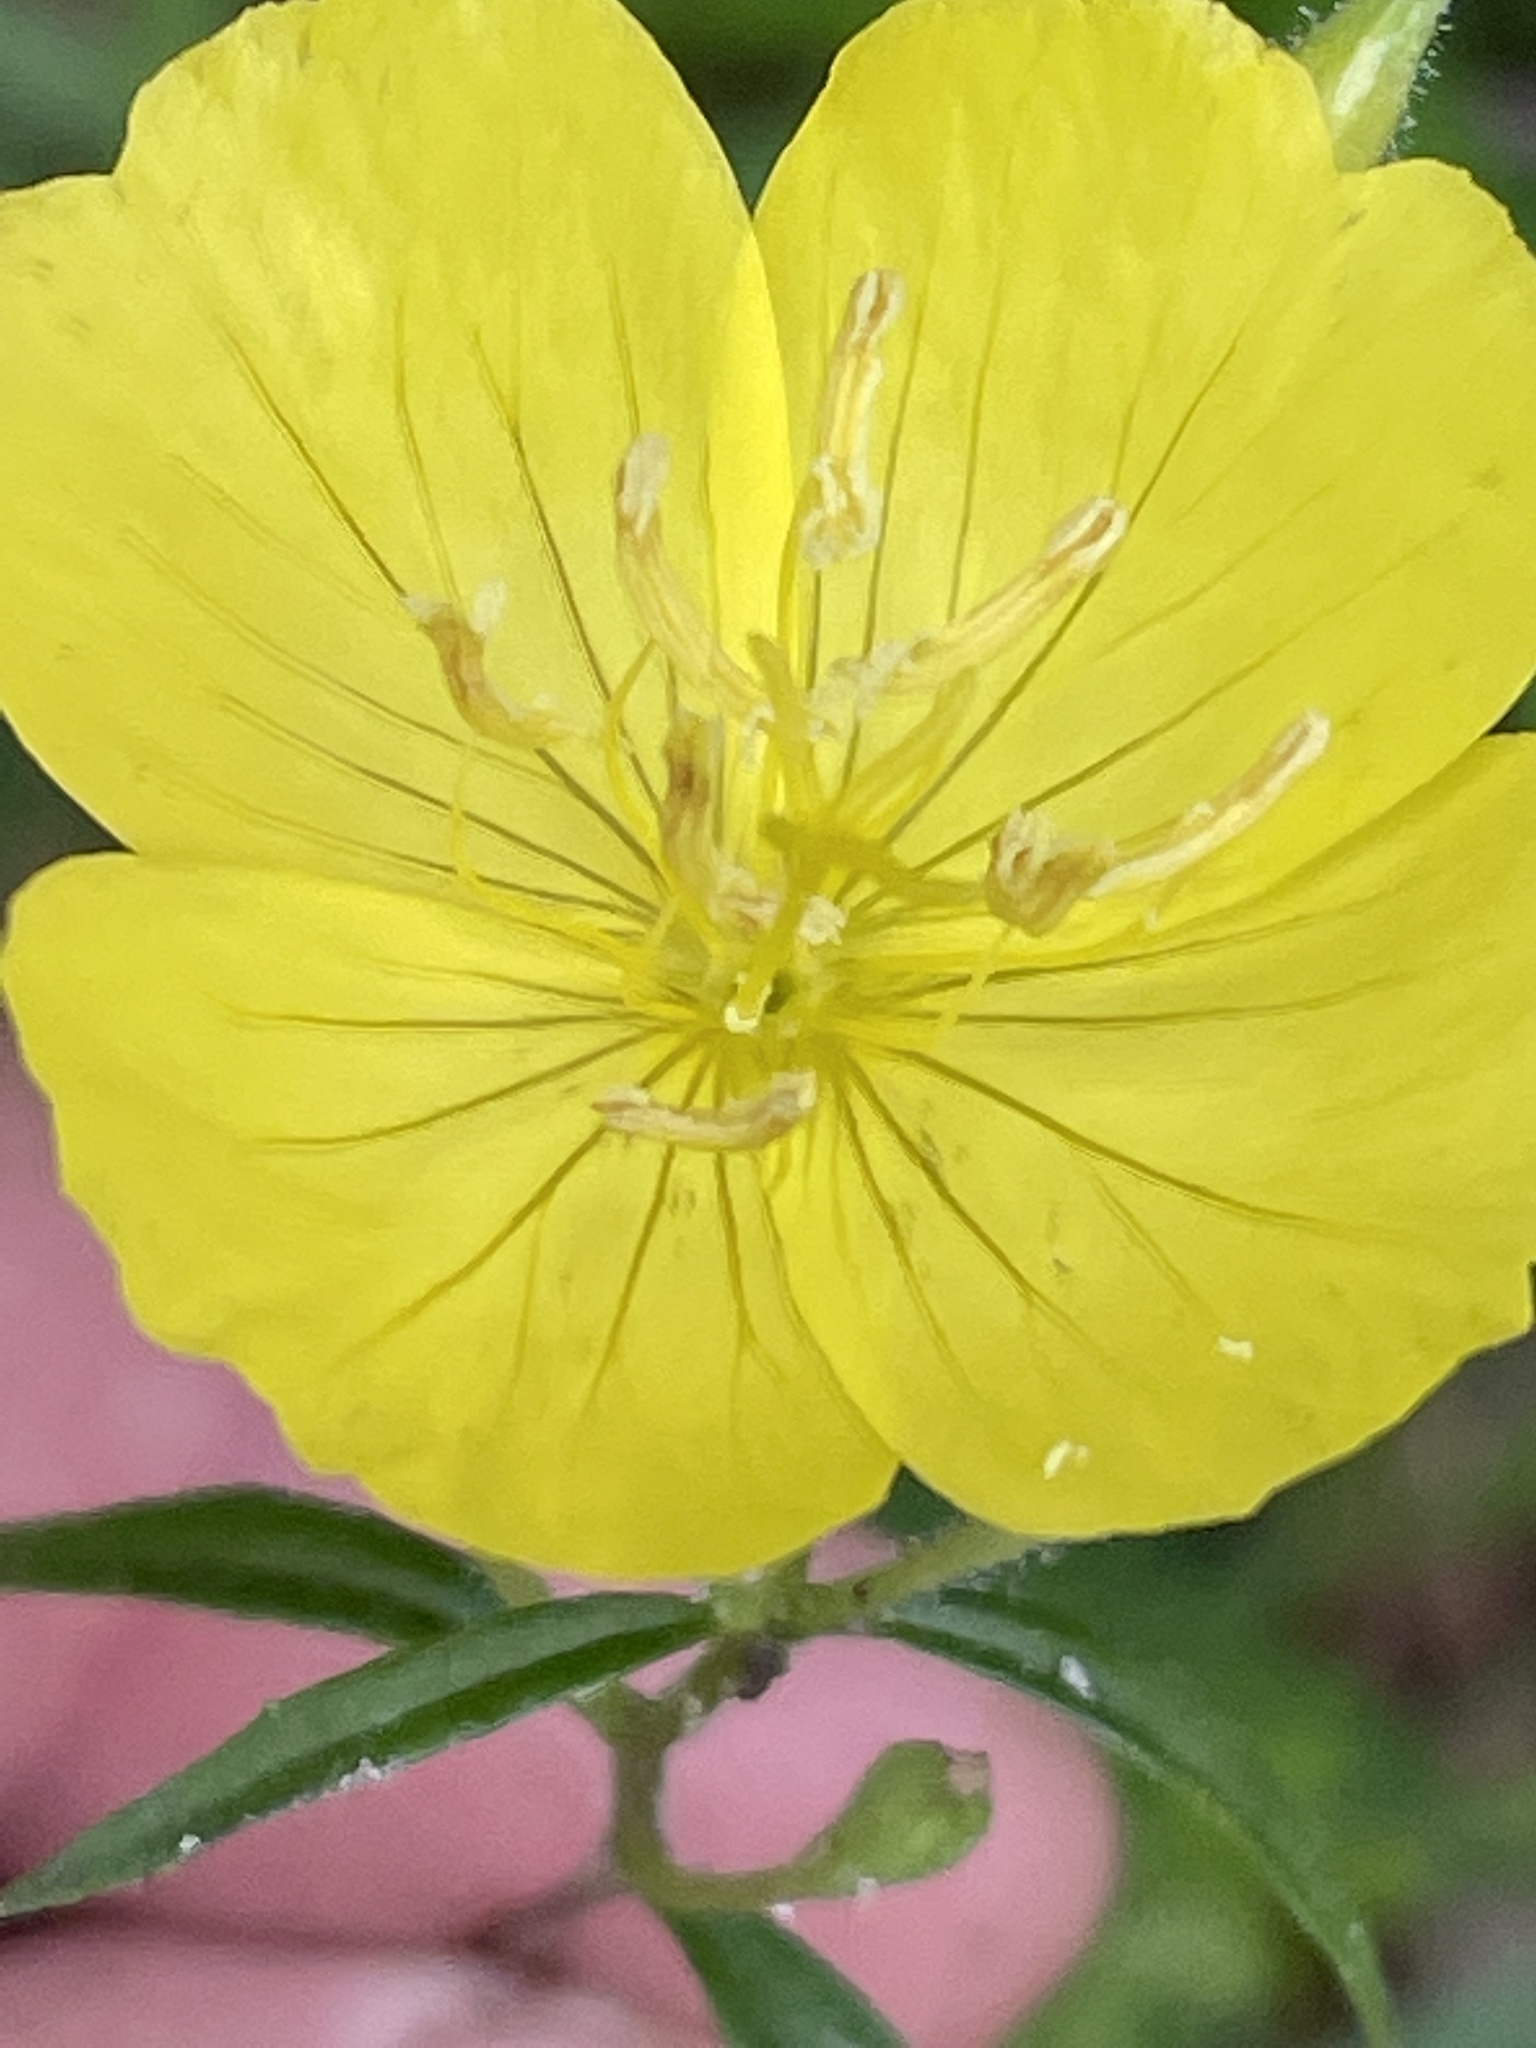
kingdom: Plantae
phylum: Tracheophyta
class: Magnoliopsida
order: Myrtales
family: Onagraceae
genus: Oenothera
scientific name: Oenothera fruticosa
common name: Southern sundrops
